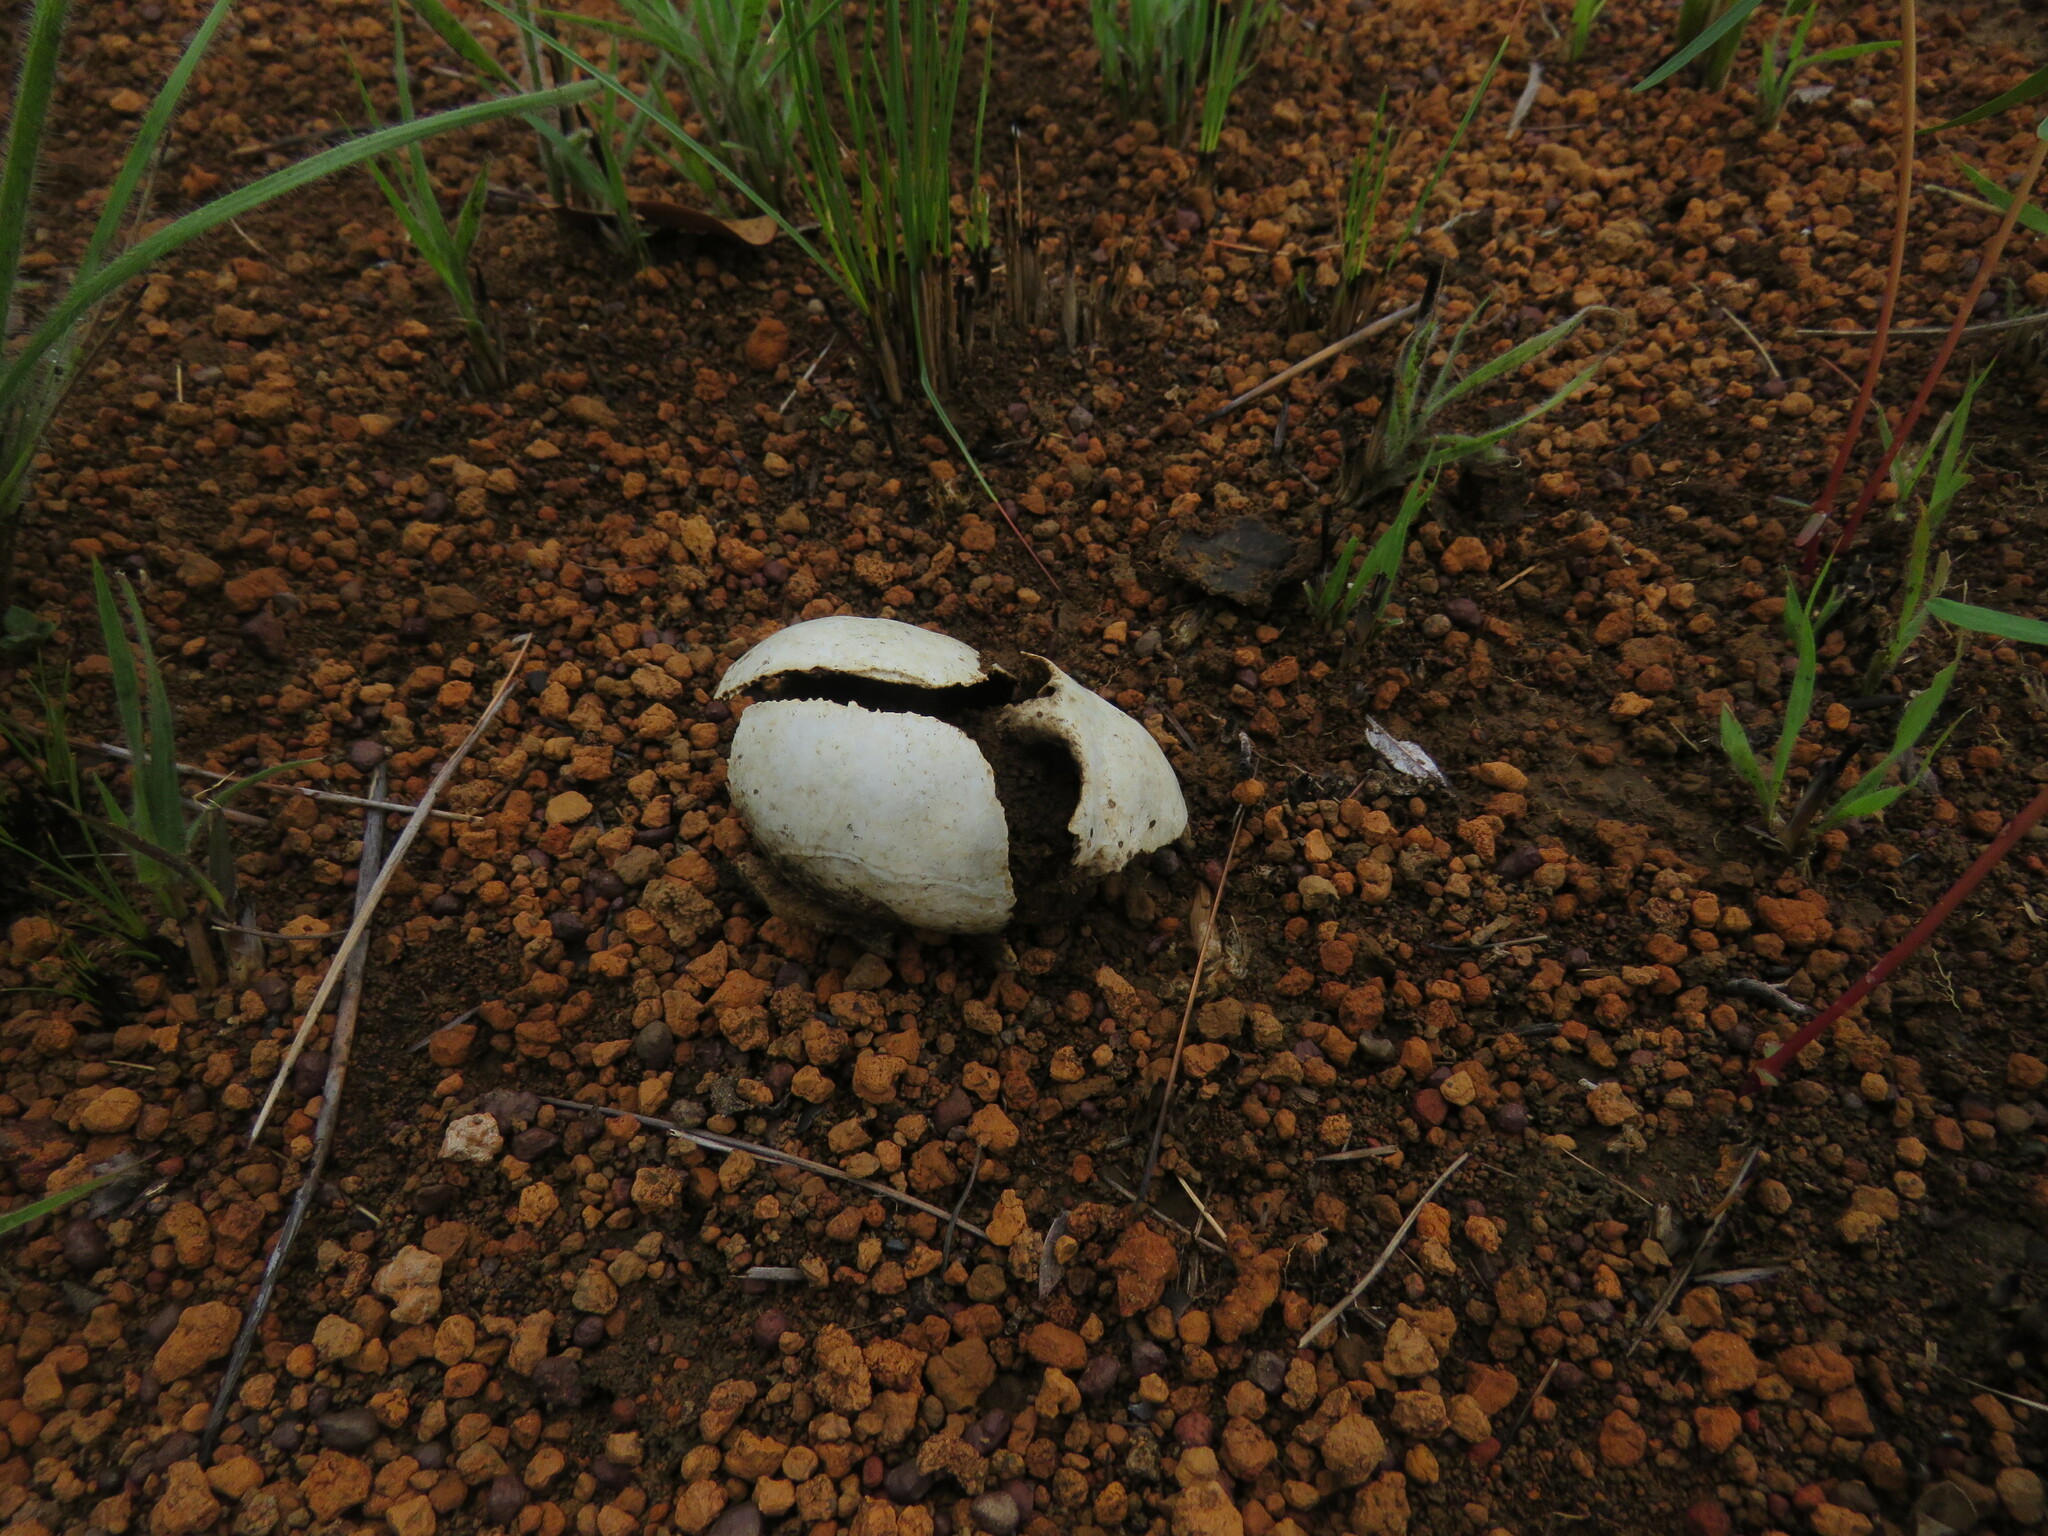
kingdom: Animalia
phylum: Chordata
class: Mammalia
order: Cingulata
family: Dasypodidae
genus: Euphractus
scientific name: Euphractus sexcinctus
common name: Six-banded armadillo
